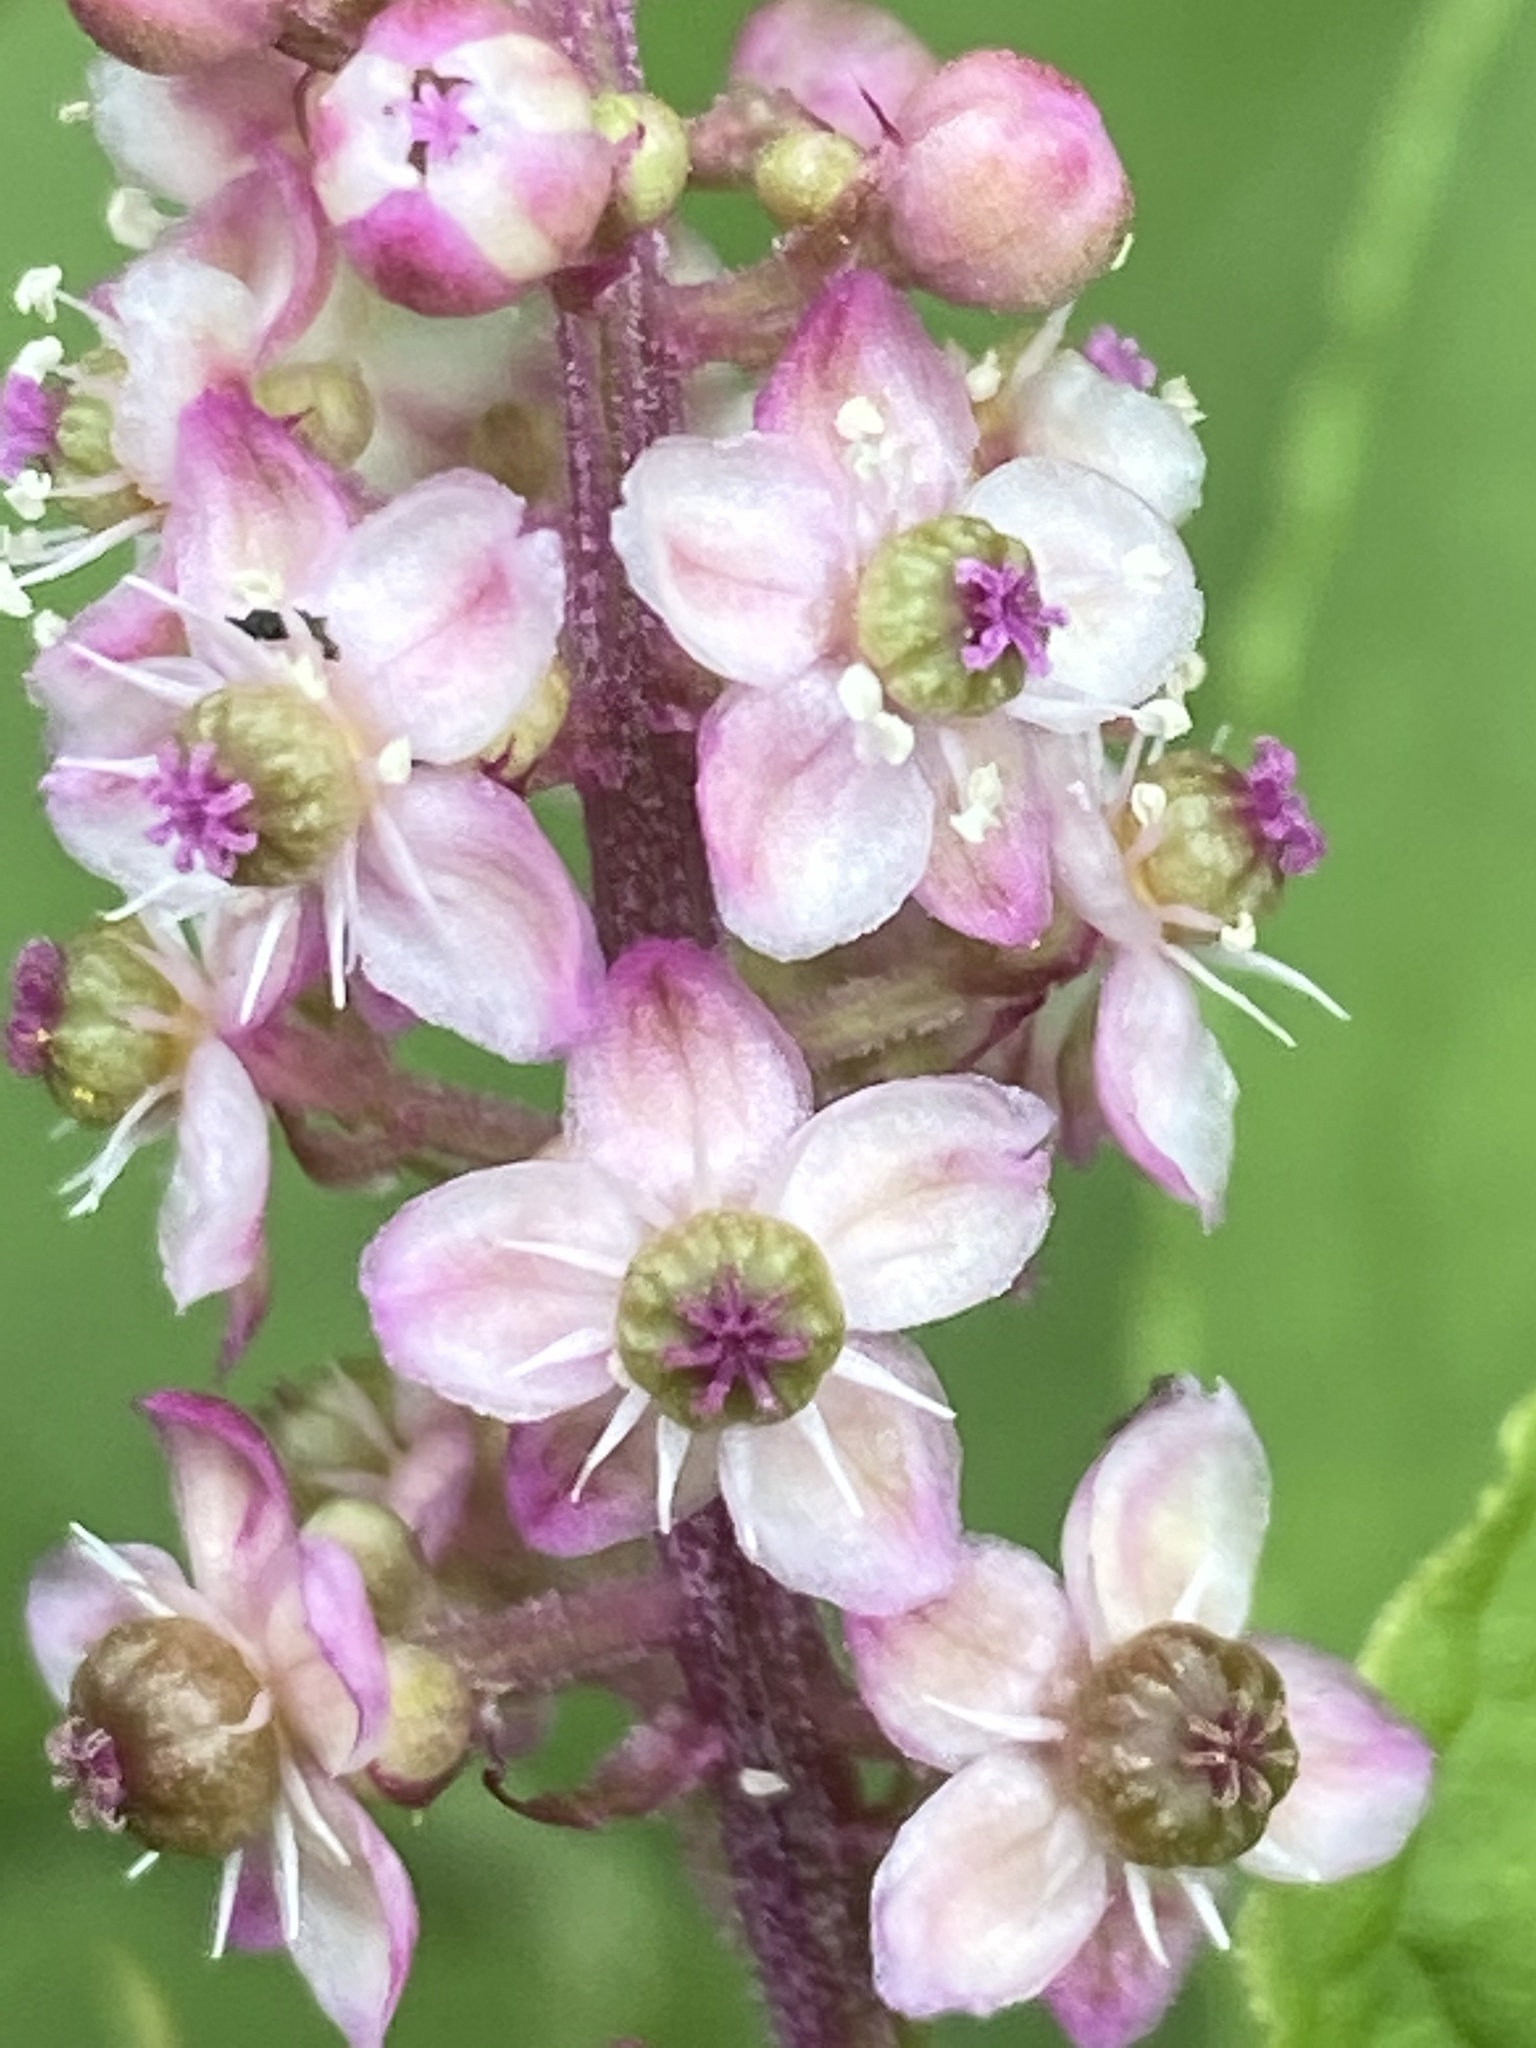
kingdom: Plantae
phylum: Tracheophyta
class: Magnoliopsida
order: Caryophyllales
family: Phytolaccaceae
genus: Phytolacca
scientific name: Phytolacca thyrsiflora
